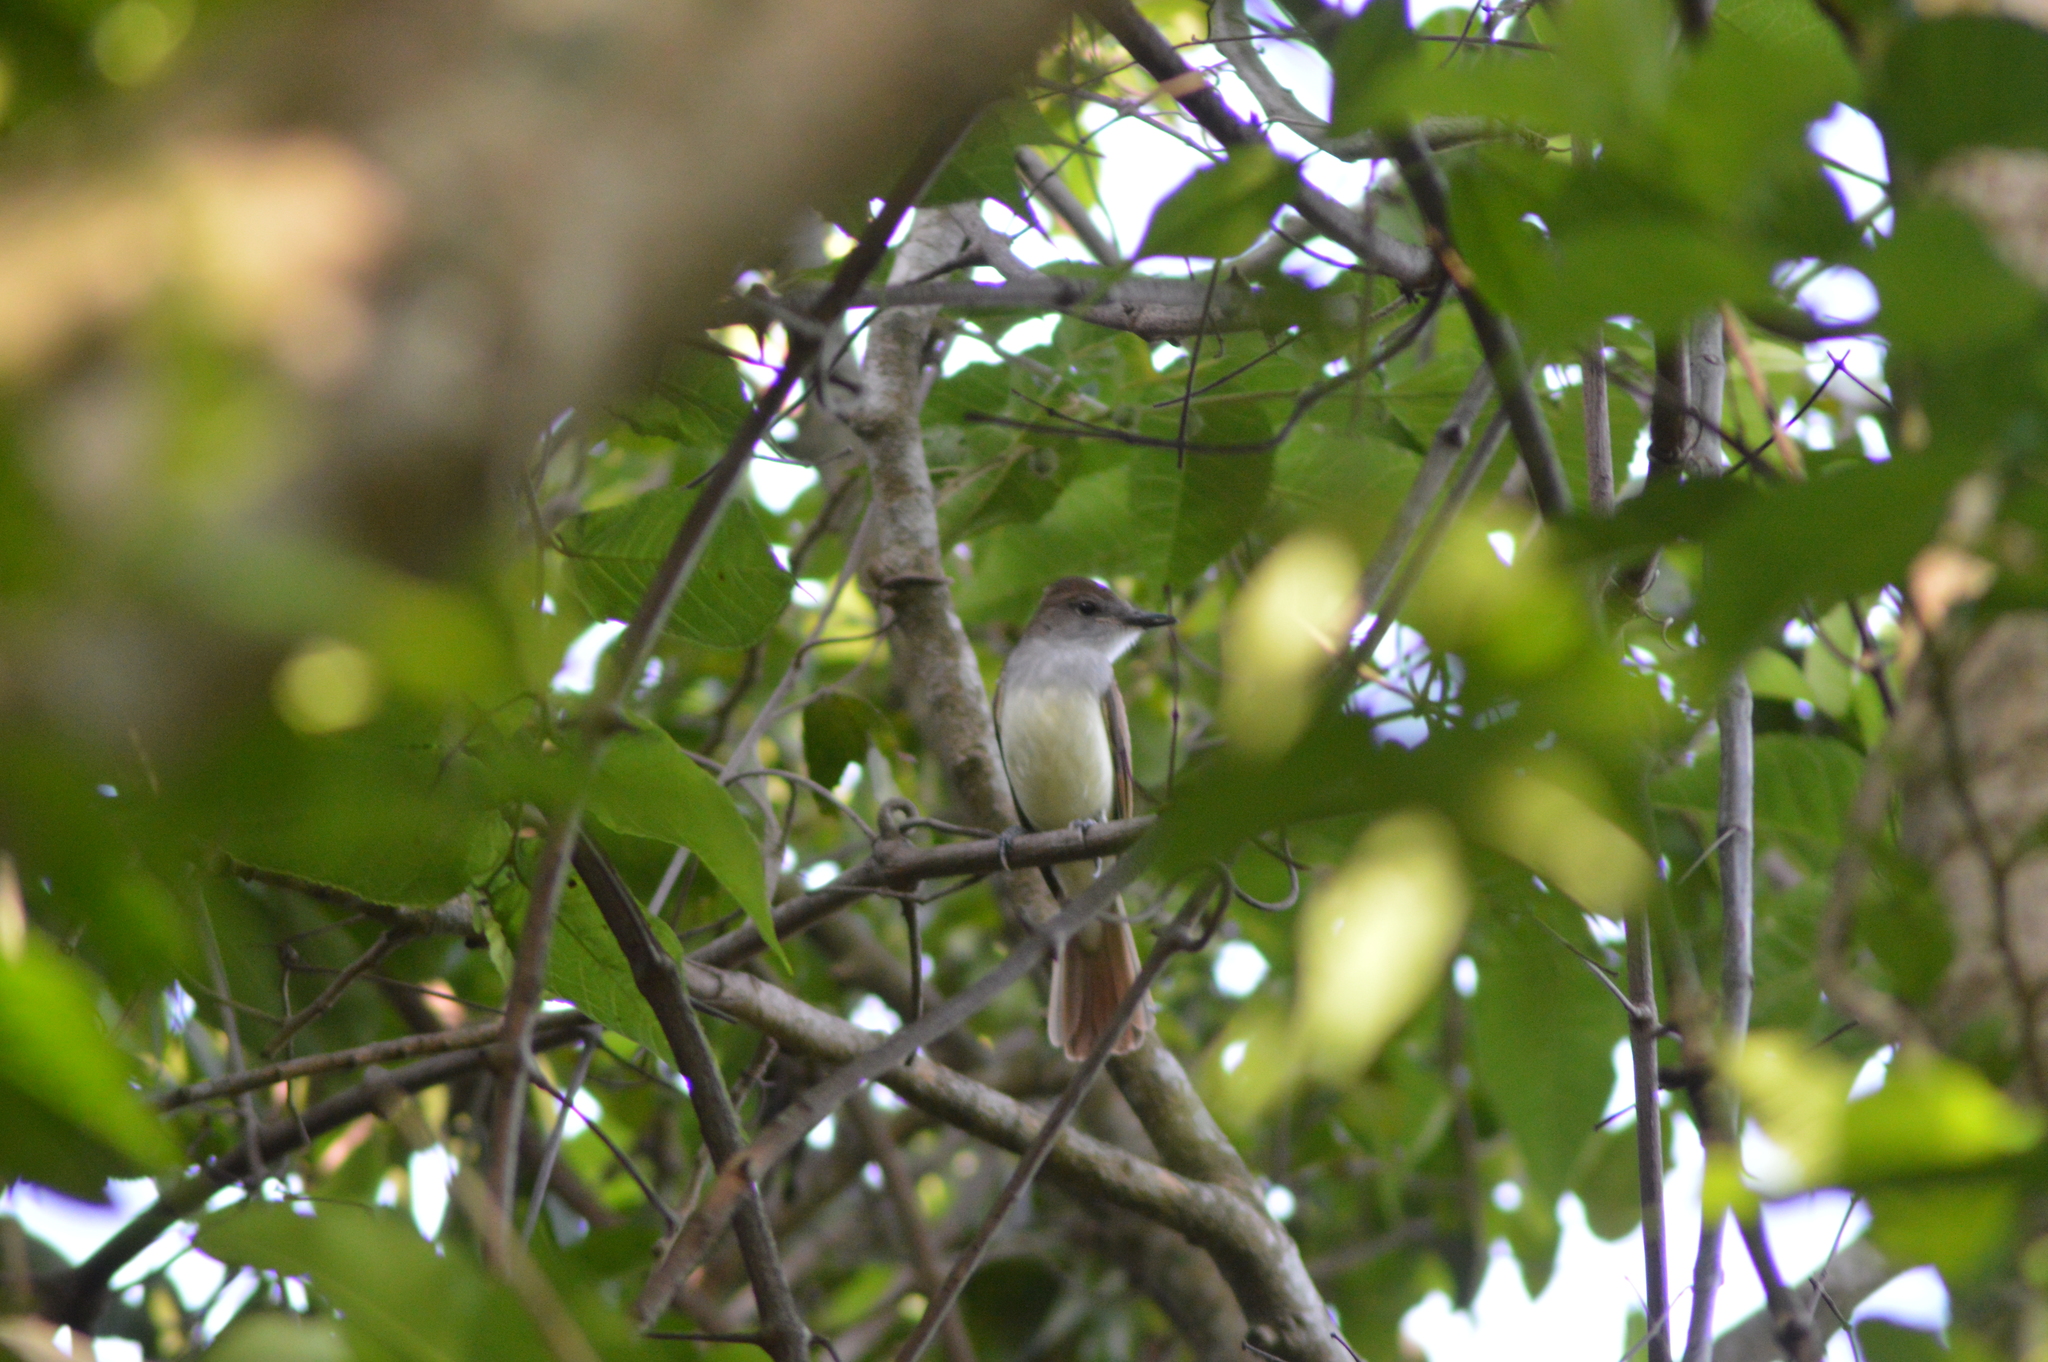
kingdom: Animalia
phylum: Chordata
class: Aves
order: Passeriformes
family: Tyrannidae
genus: Myiarchus
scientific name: Myiarchus tyrannulus
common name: Brown-crested flycatcher
